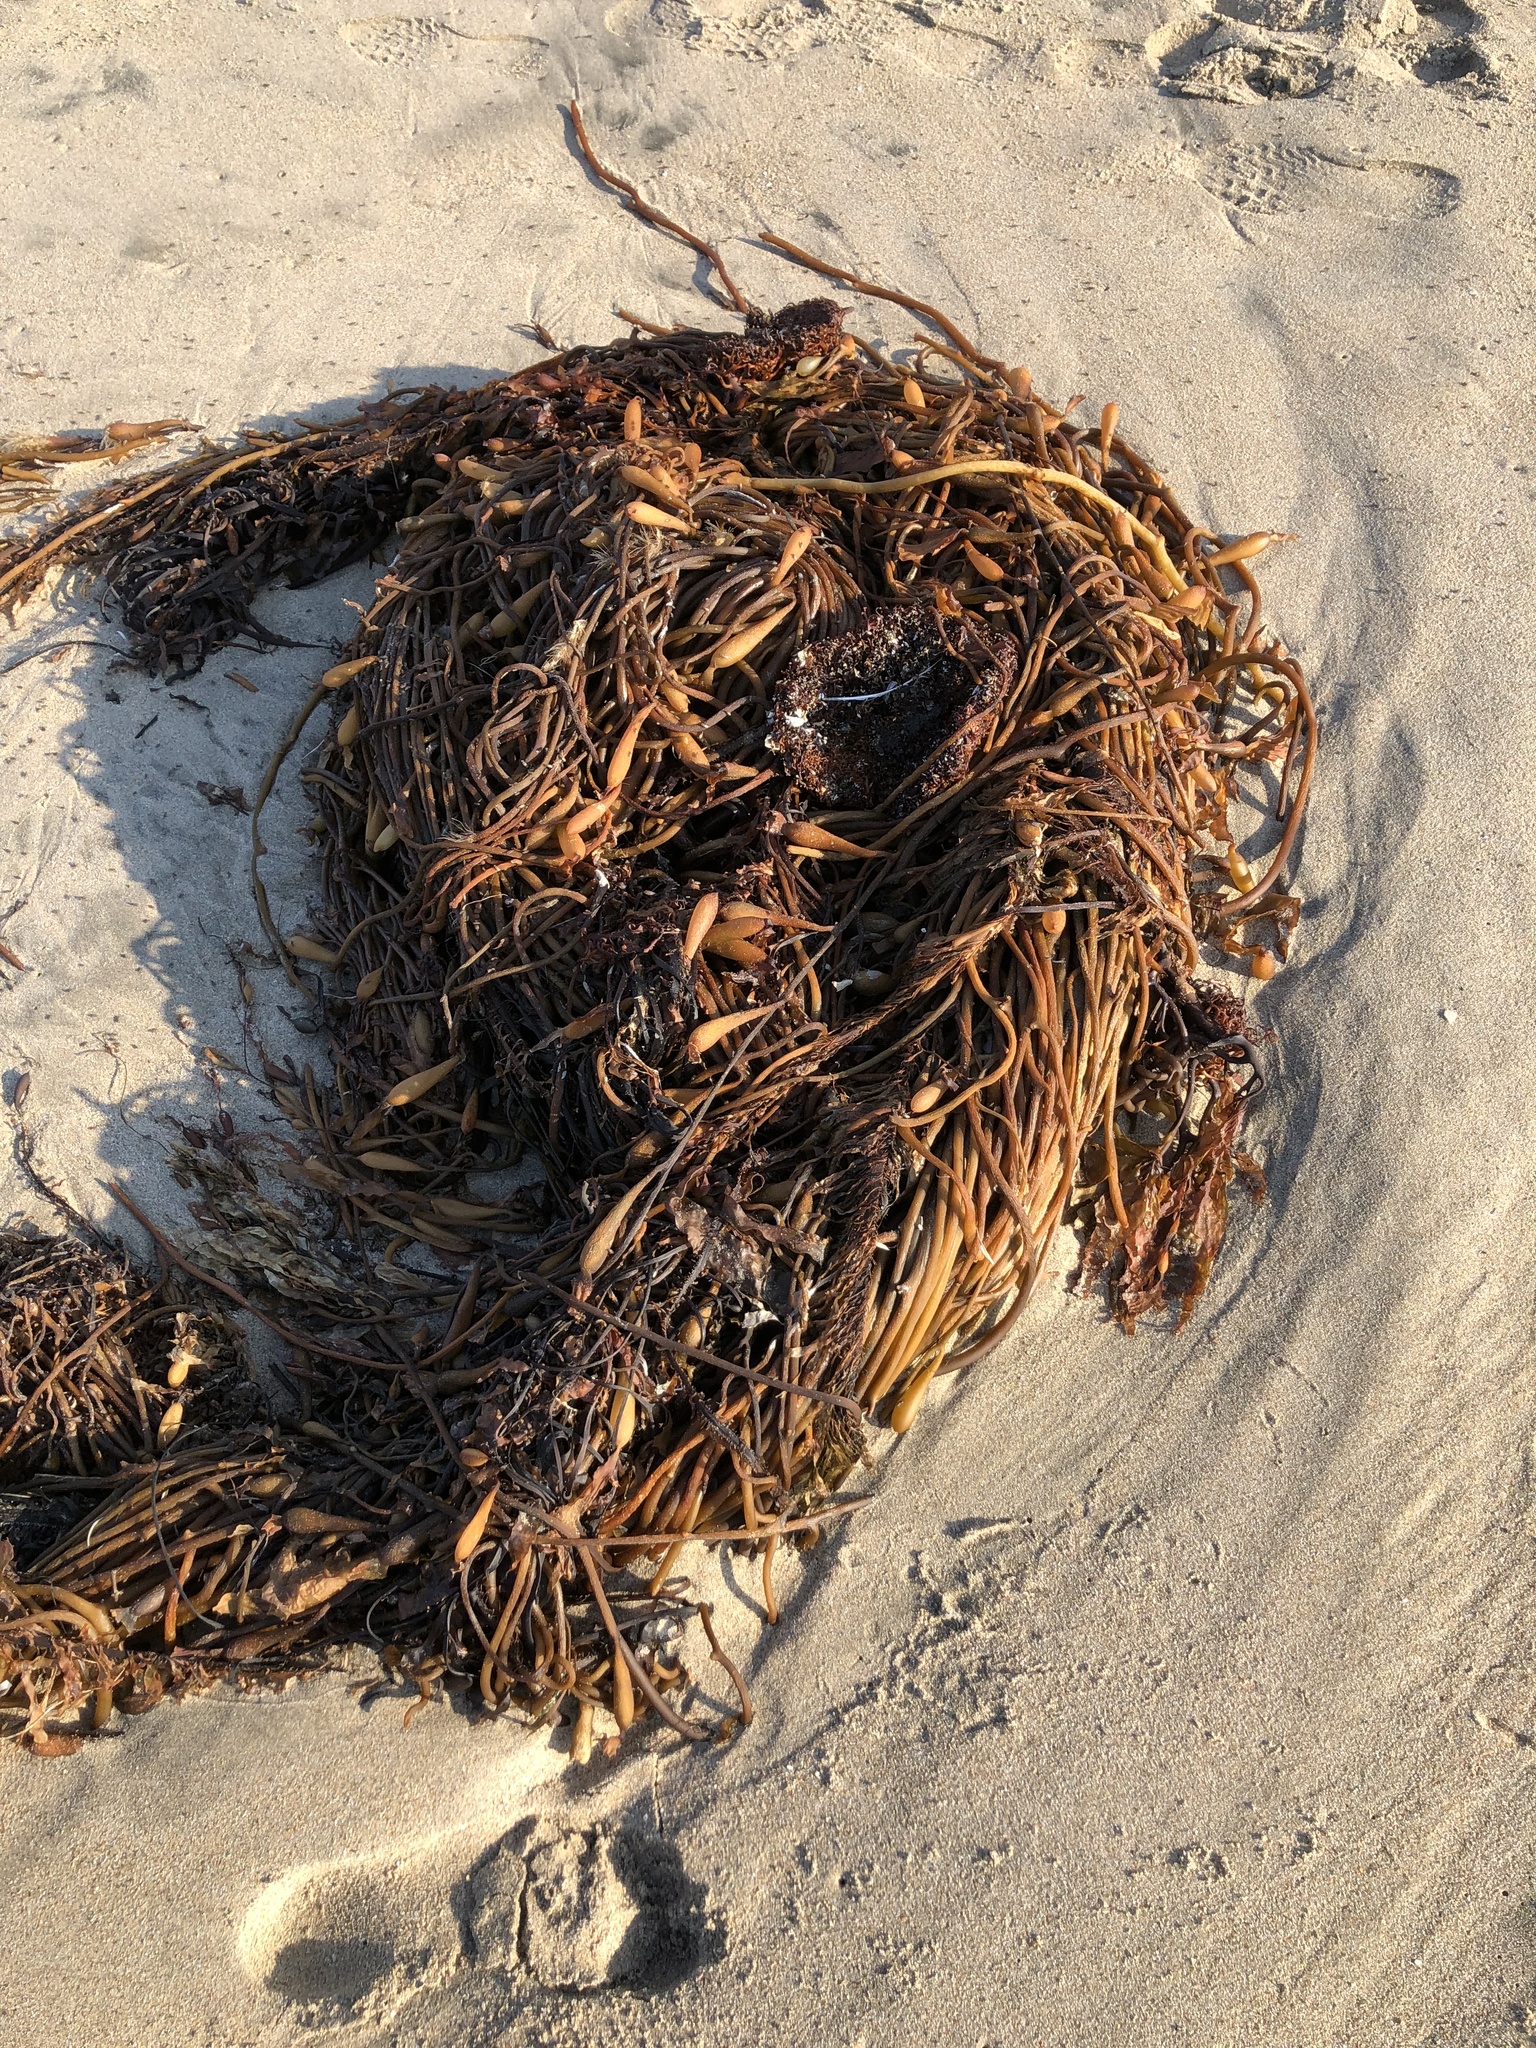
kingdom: Chromista
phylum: Ochrophyta
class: Phaeophyceae
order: Laminariales
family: Laminariaceae
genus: Macrocystis
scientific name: Macrocystis pyrifera
